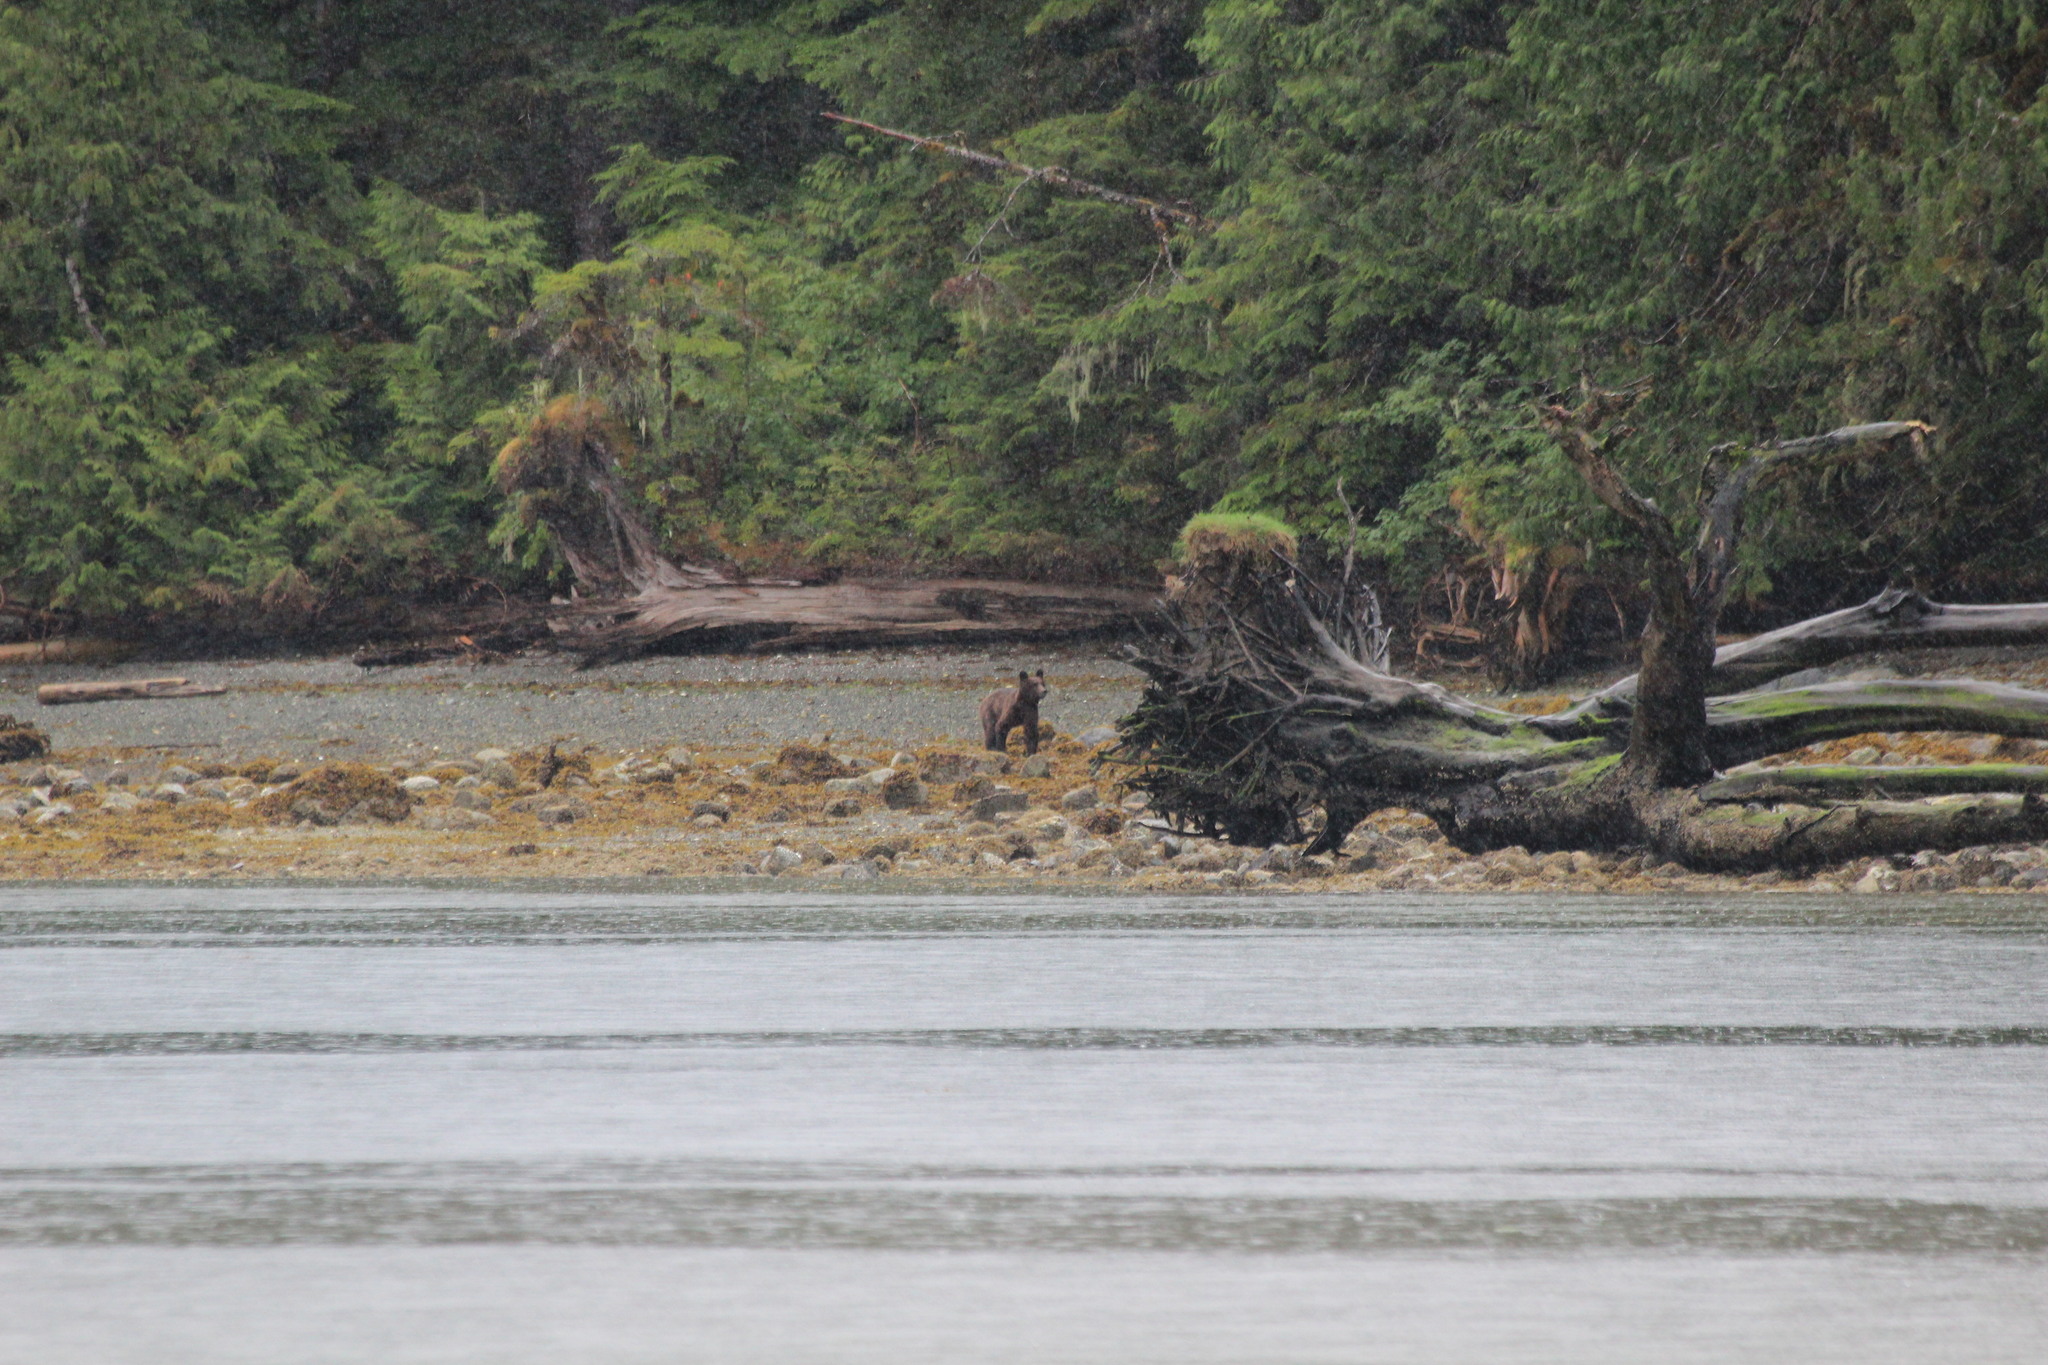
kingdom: Animalia
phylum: Chordata
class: Mammalia
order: Carnivora
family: Ursidae
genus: Ursus
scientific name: Ursus arctos
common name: Brown bear
